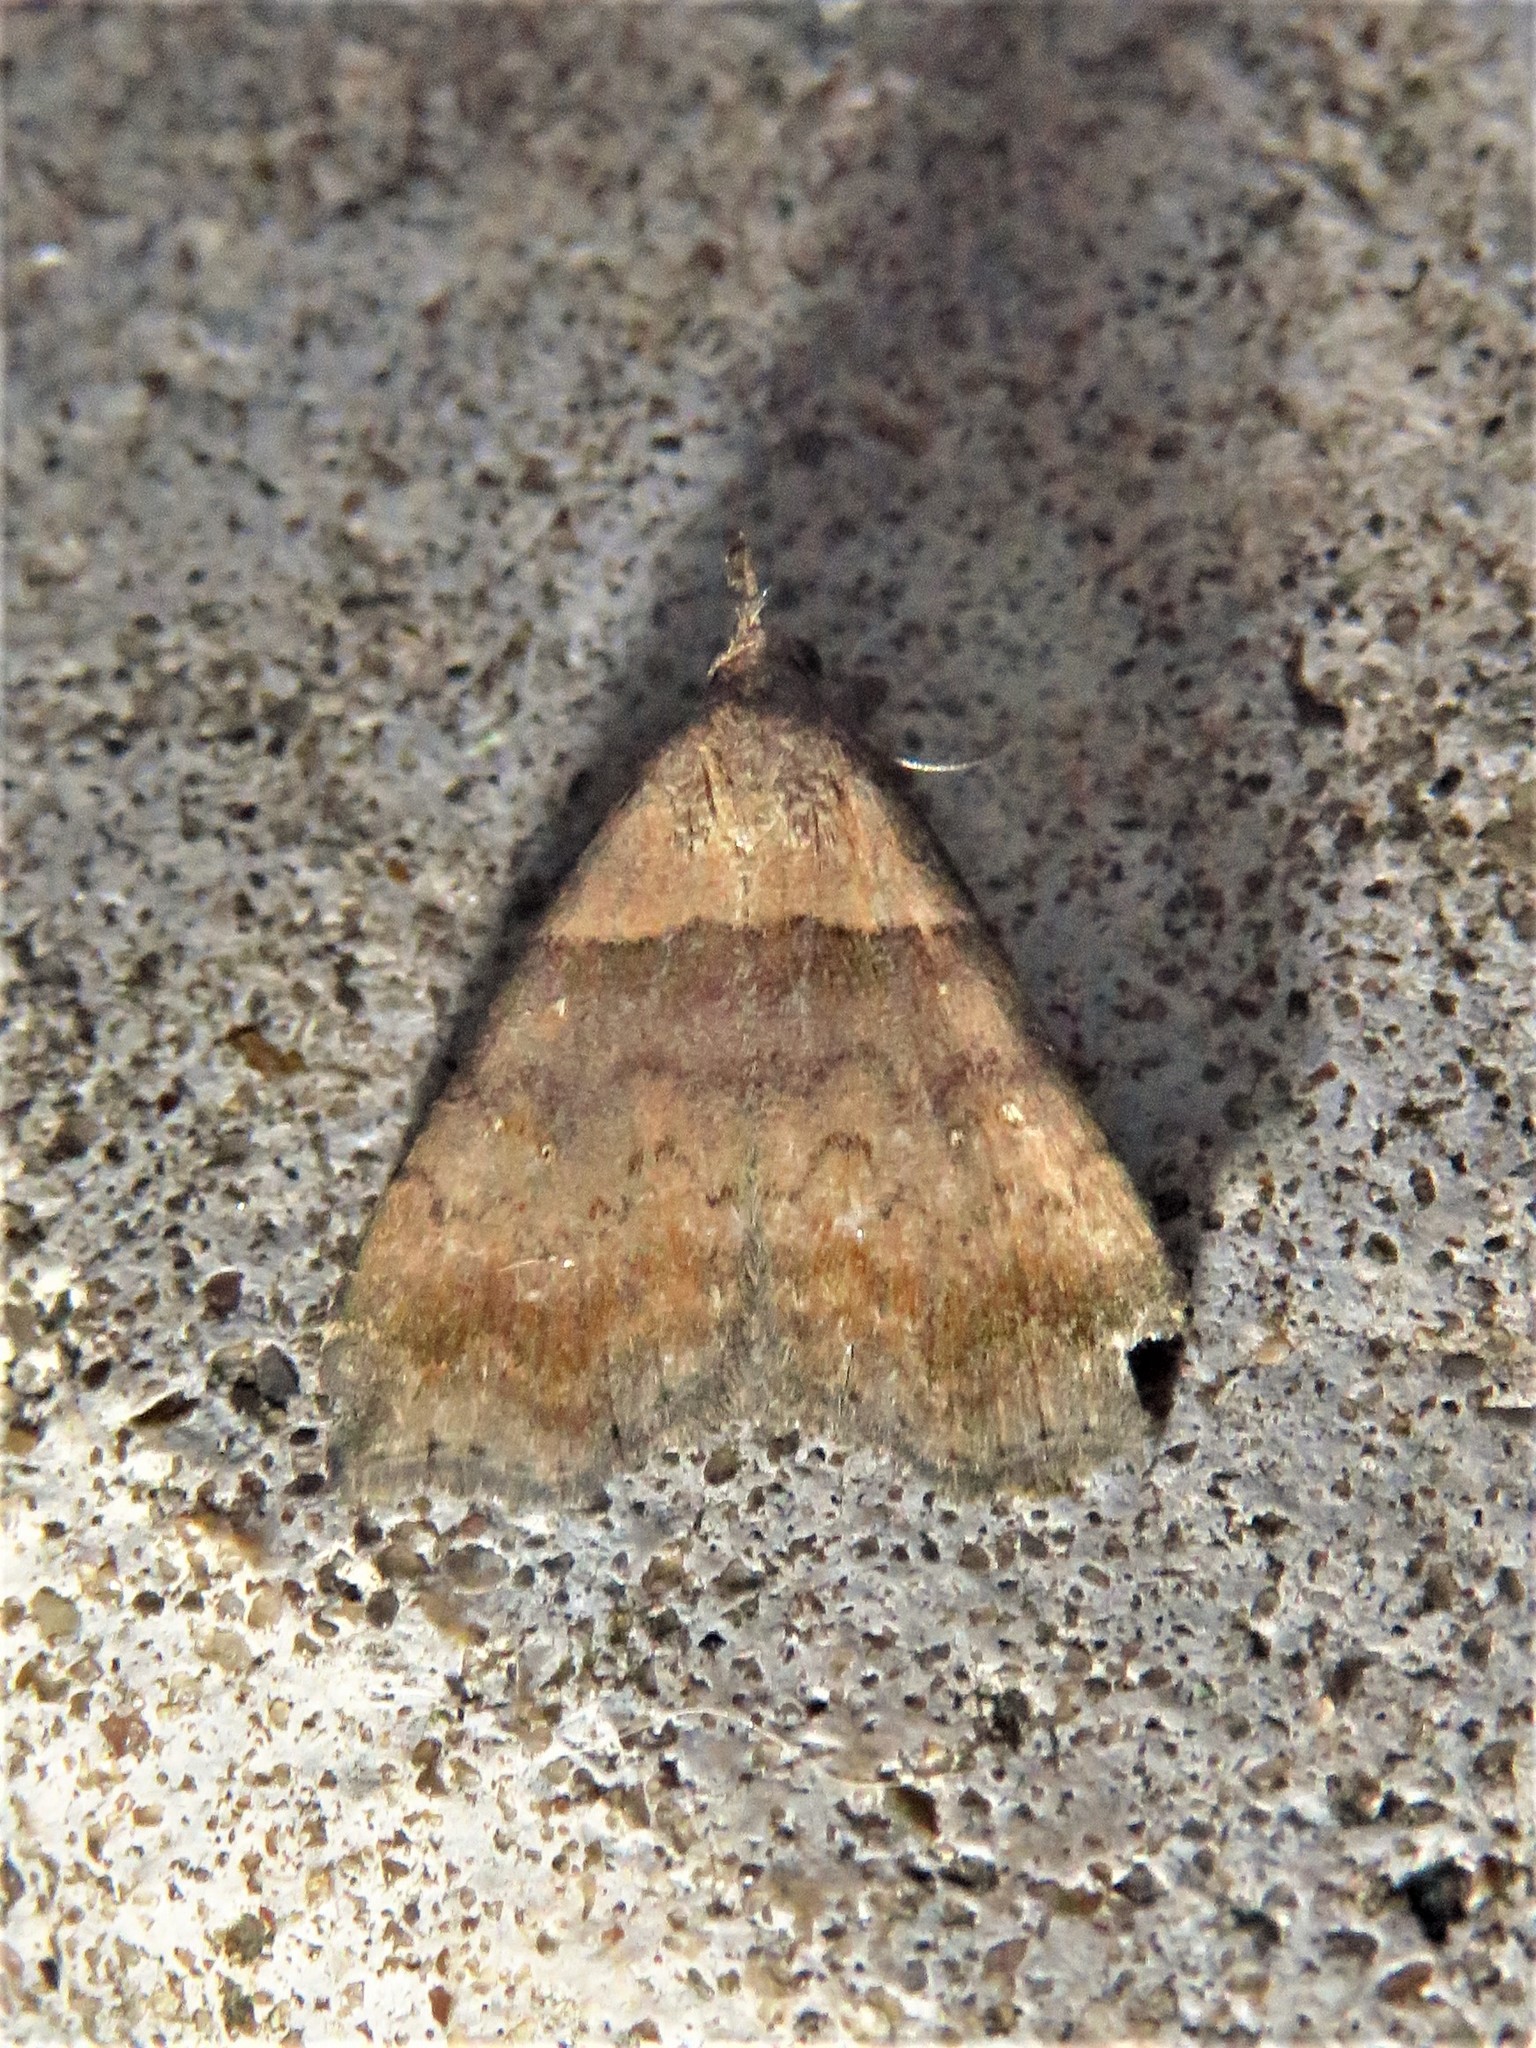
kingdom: Animalia
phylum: Arthropoda
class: Insecta
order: Lepidoptera
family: Erebidae
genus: Lascoria
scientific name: Lascoria ambigualis
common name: Ambiguous moth
